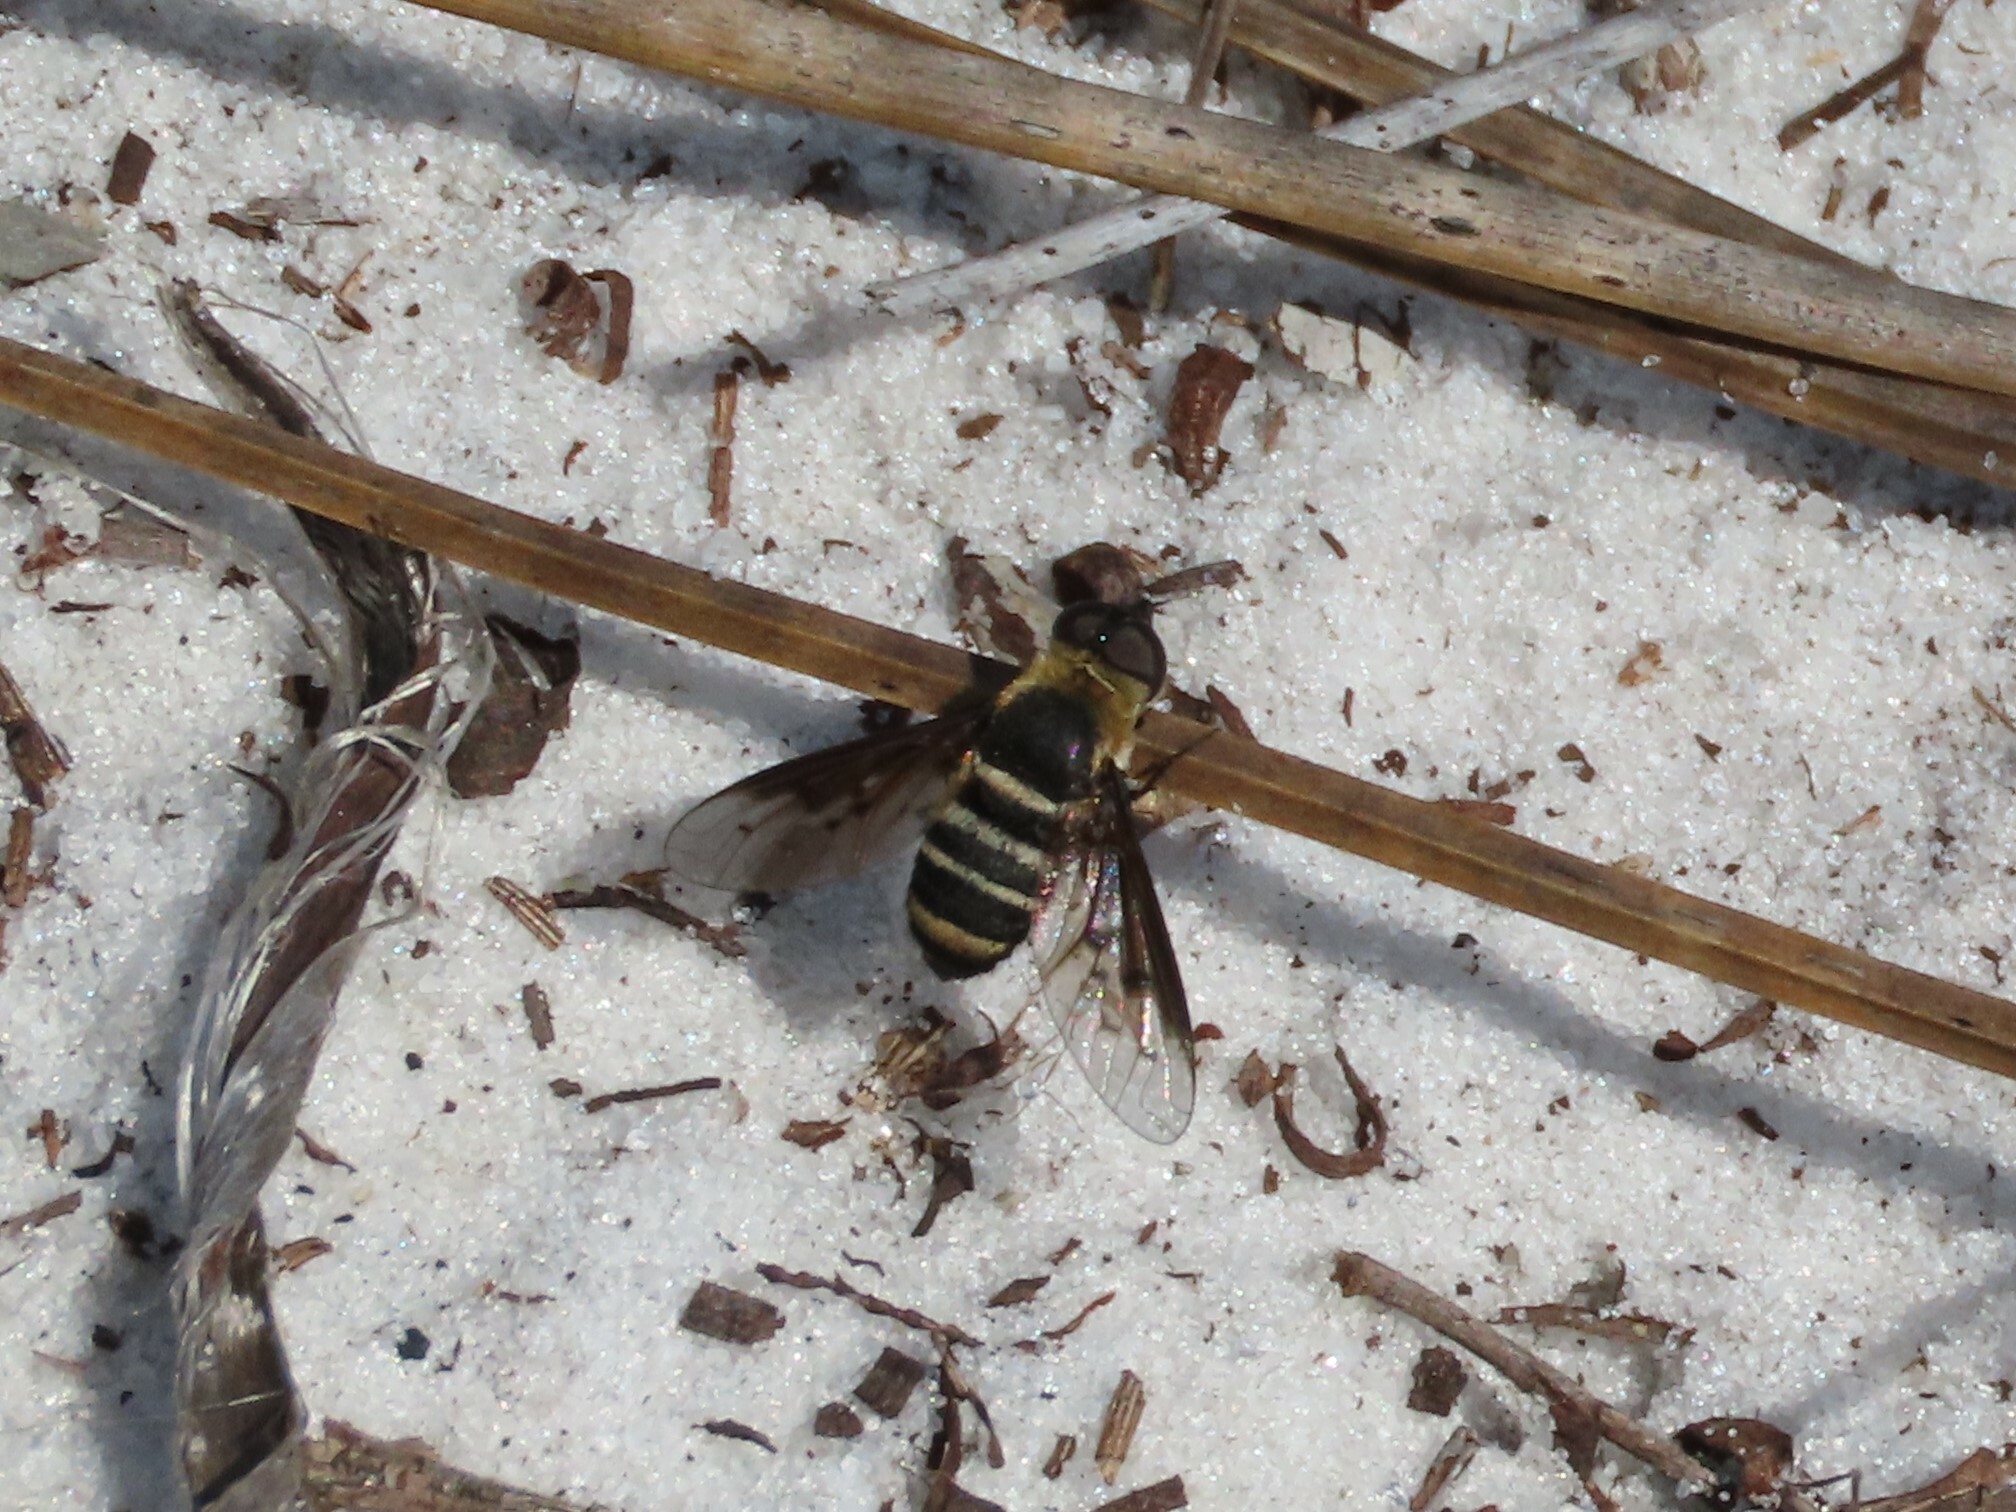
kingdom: Animalia
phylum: Arthropoda
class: Insecta
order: Diptera
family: Bombyliidae
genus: Chrysanthrax
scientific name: Chrysanthrax dispar
